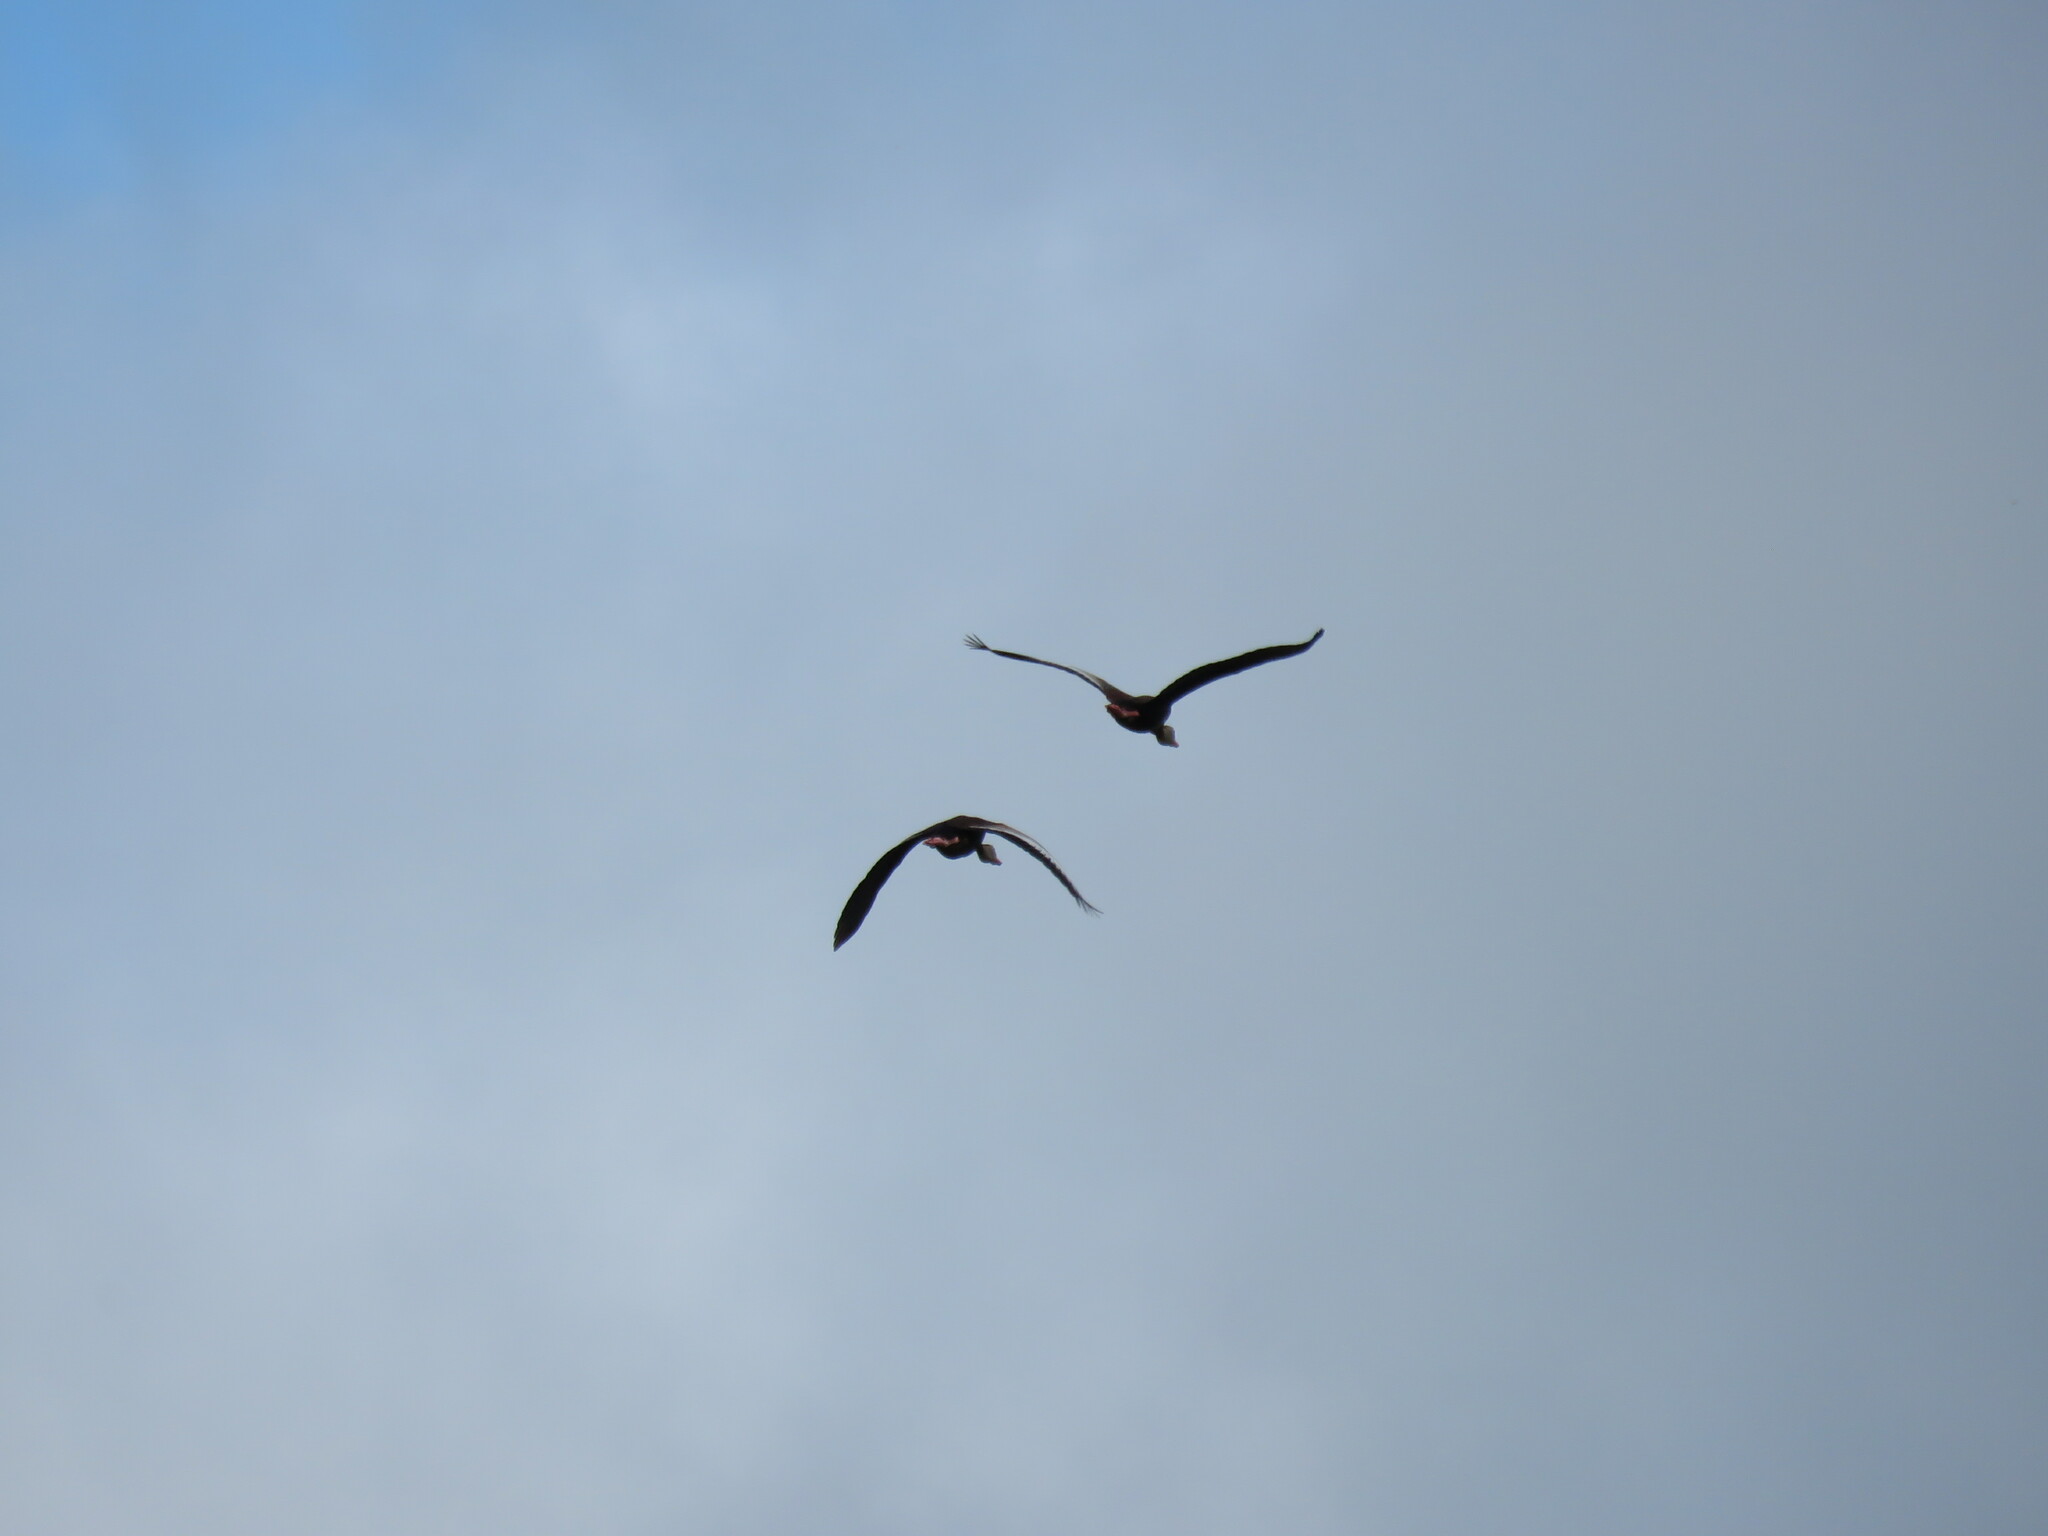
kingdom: Animalia
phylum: Chordata
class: Aves
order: Anseriformes
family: Anatidae
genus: Dendrocygna
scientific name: Dendrocygna autumnalis
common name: Black-bellied whistling duck
